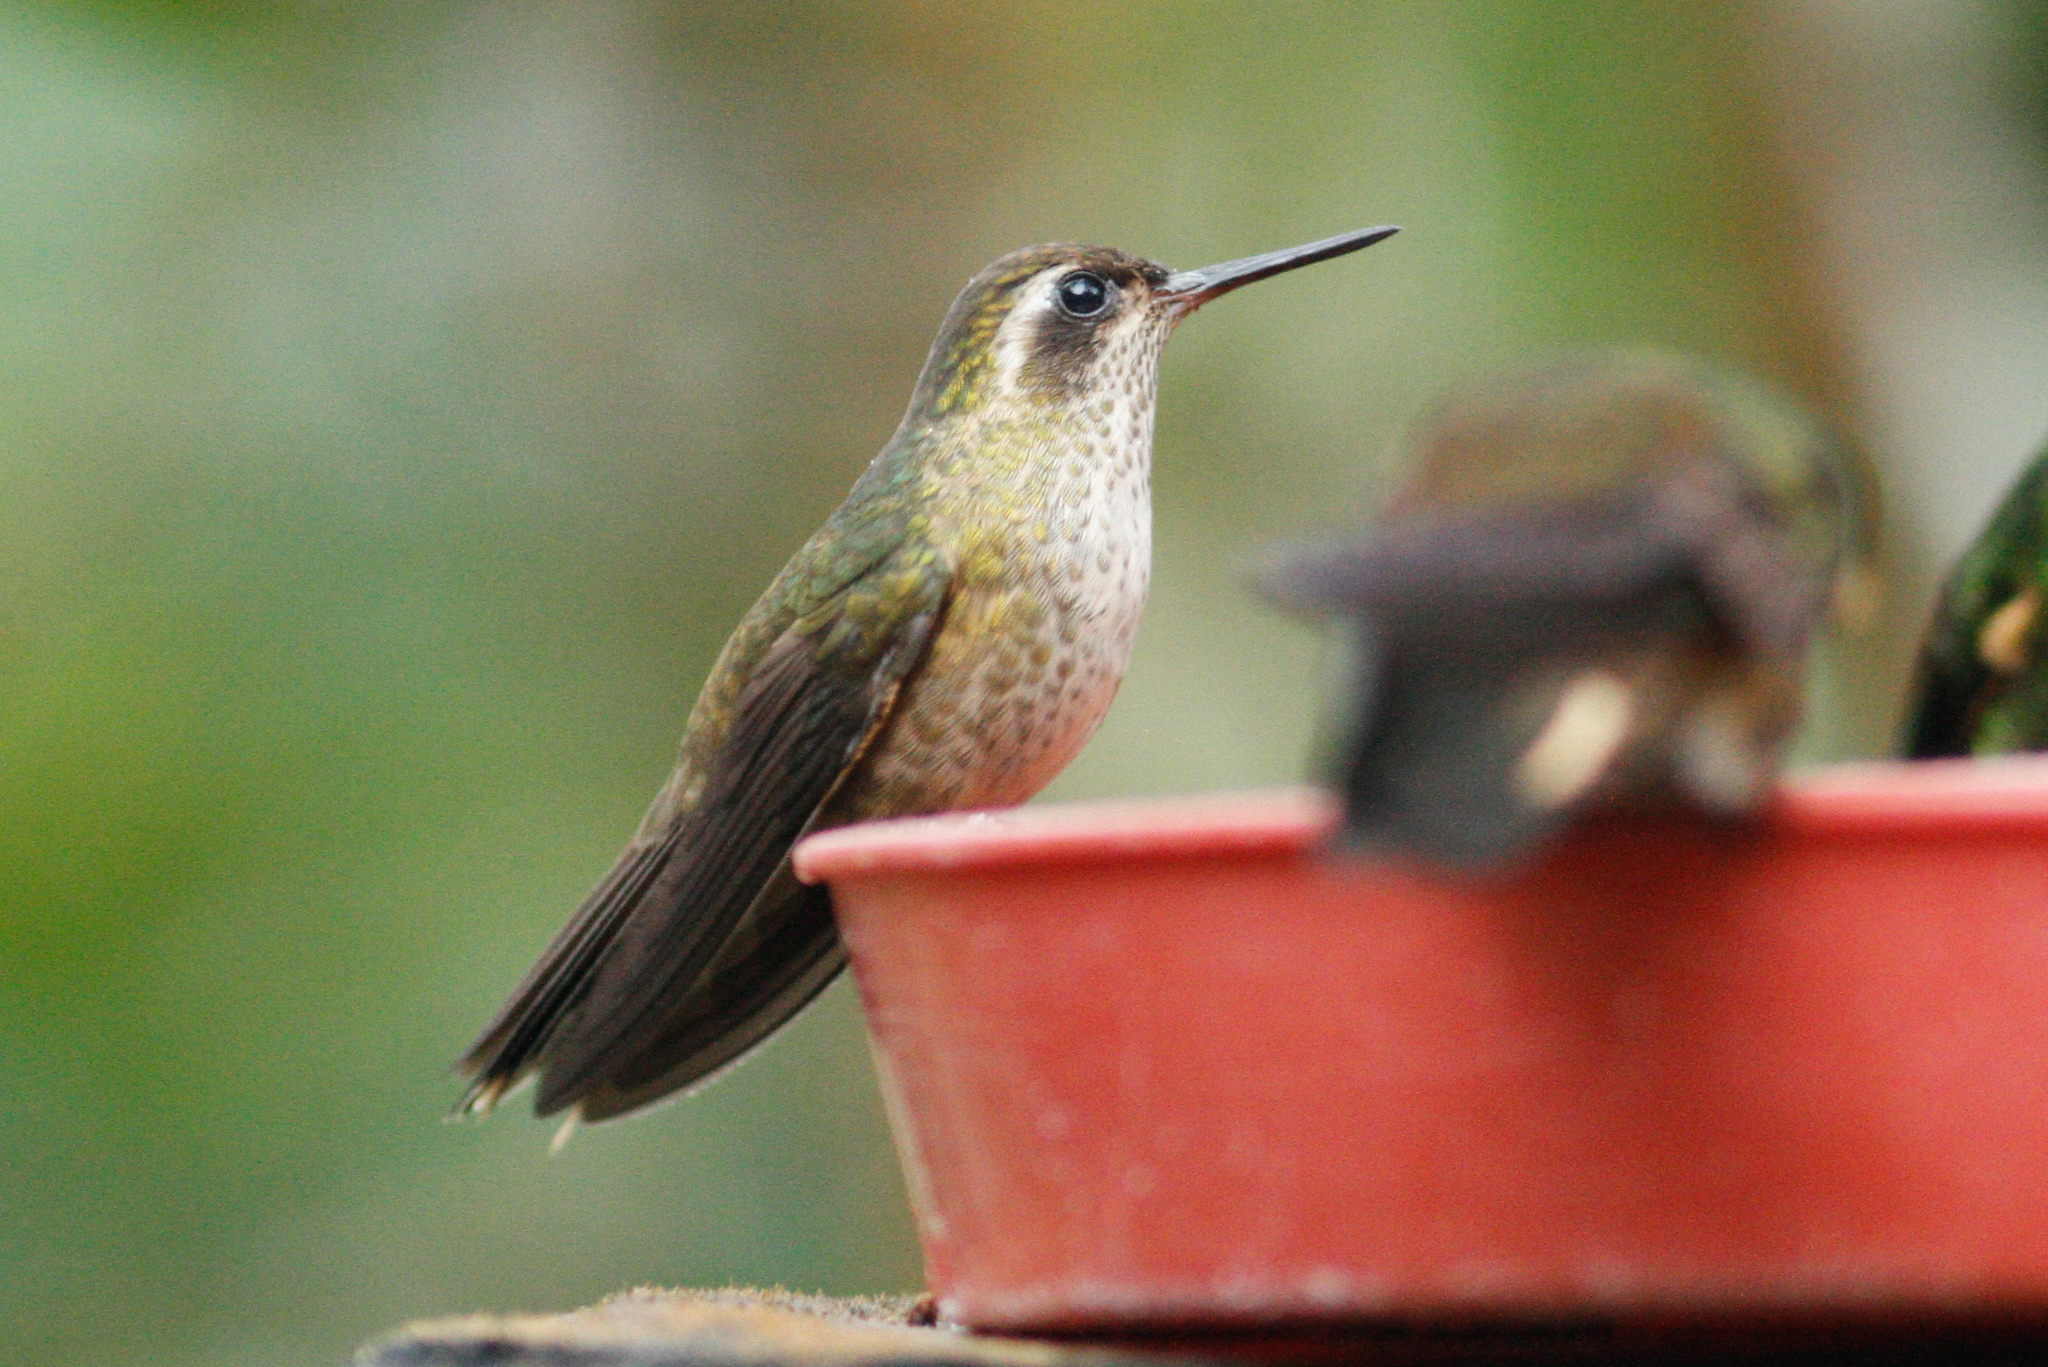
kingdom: Animalia
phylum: Chordata
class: Aves
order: Apodiformes
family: Trochilidae
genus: Adelomyia
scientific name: Adelomyia melanogenys
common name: Speckled hummingbird
